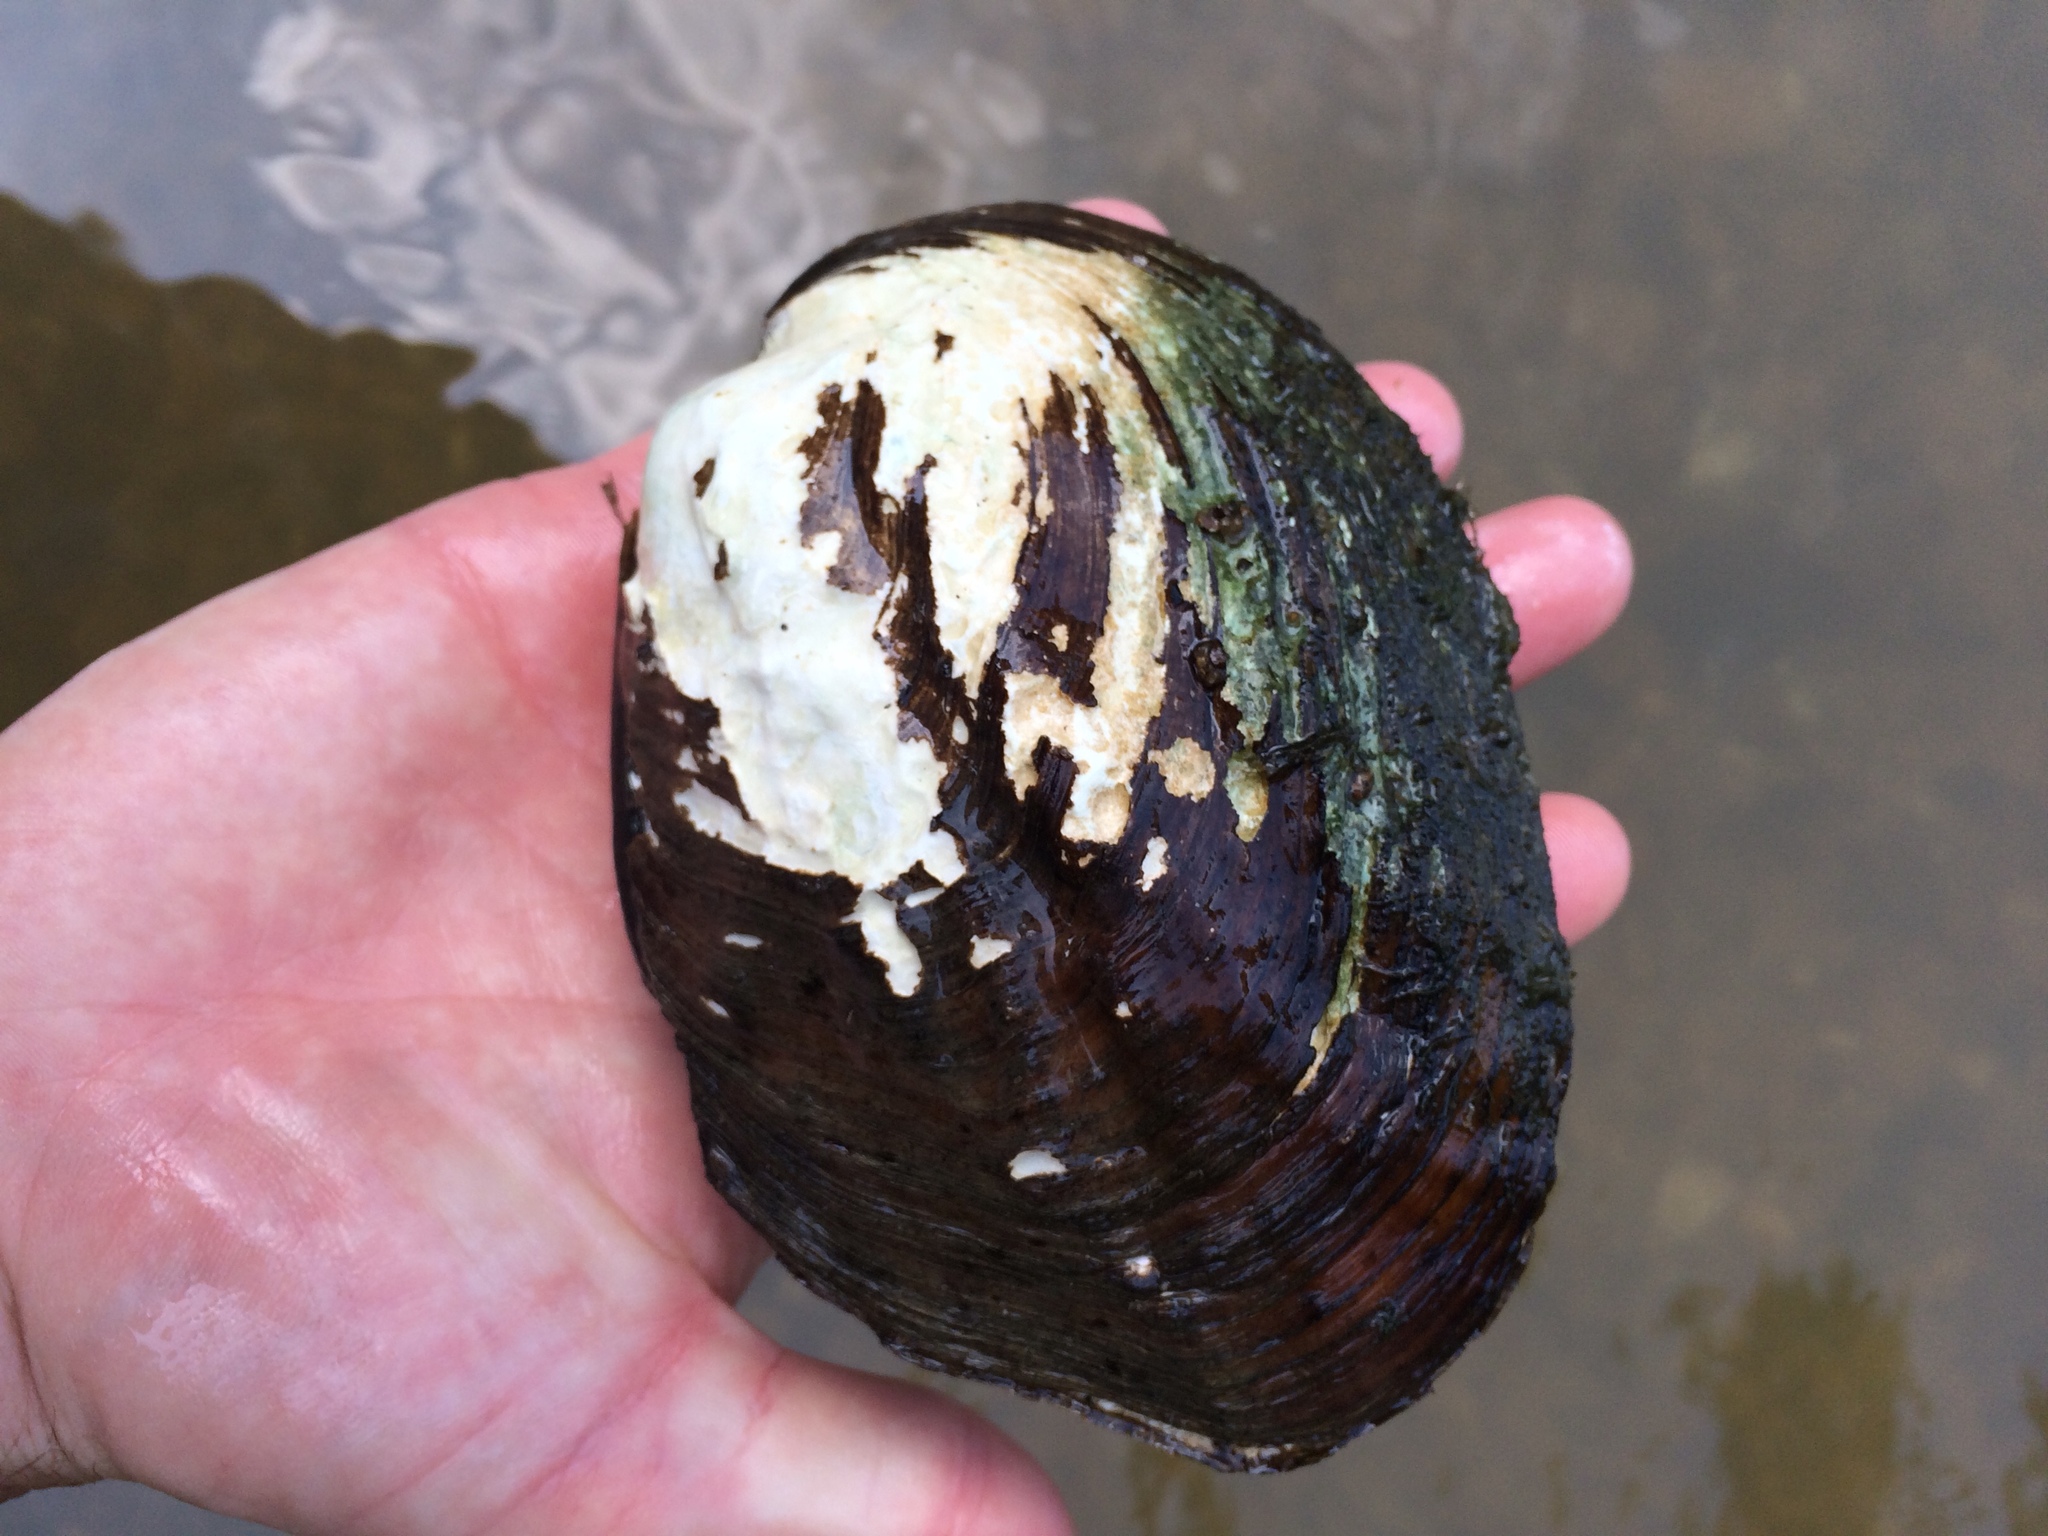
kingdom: Animalia
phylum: Mollusca
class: Bivalvia
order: Unionida
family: Unionidae
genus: Amblema
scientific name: Amblema plicata
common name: Threeridge
